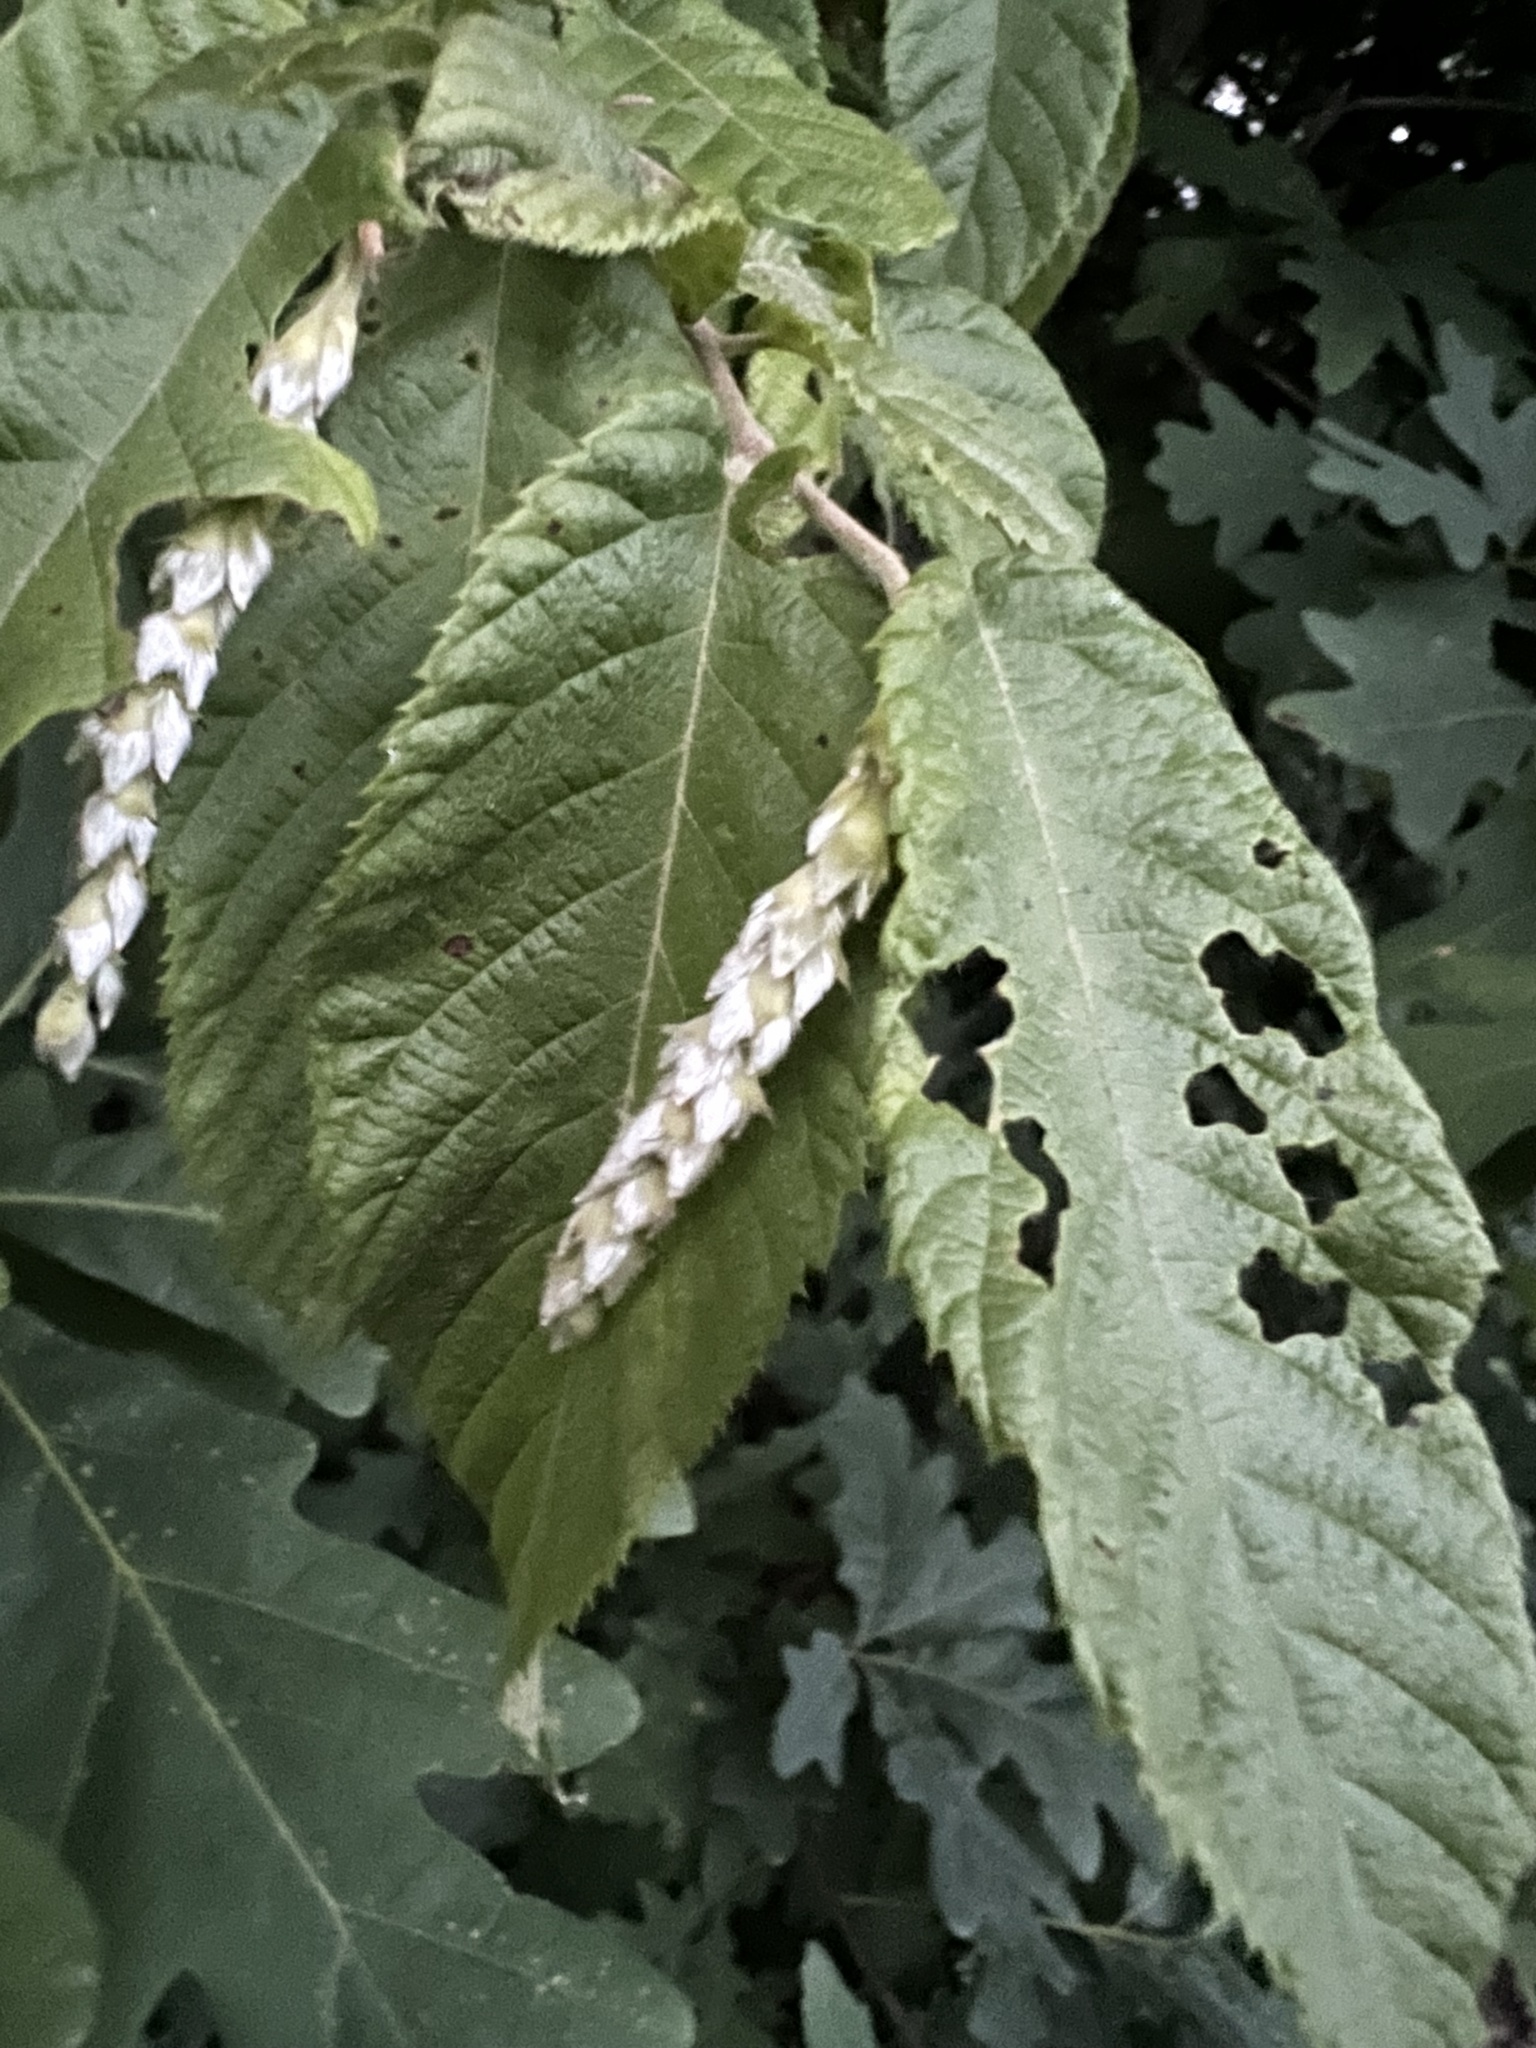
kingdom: Plantae
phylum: Tracheophyta
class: Magnoliopsida
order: Fagales
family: Betulaceae
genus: Ostrya
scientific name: Ostrya virginiana
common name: Ironwood
